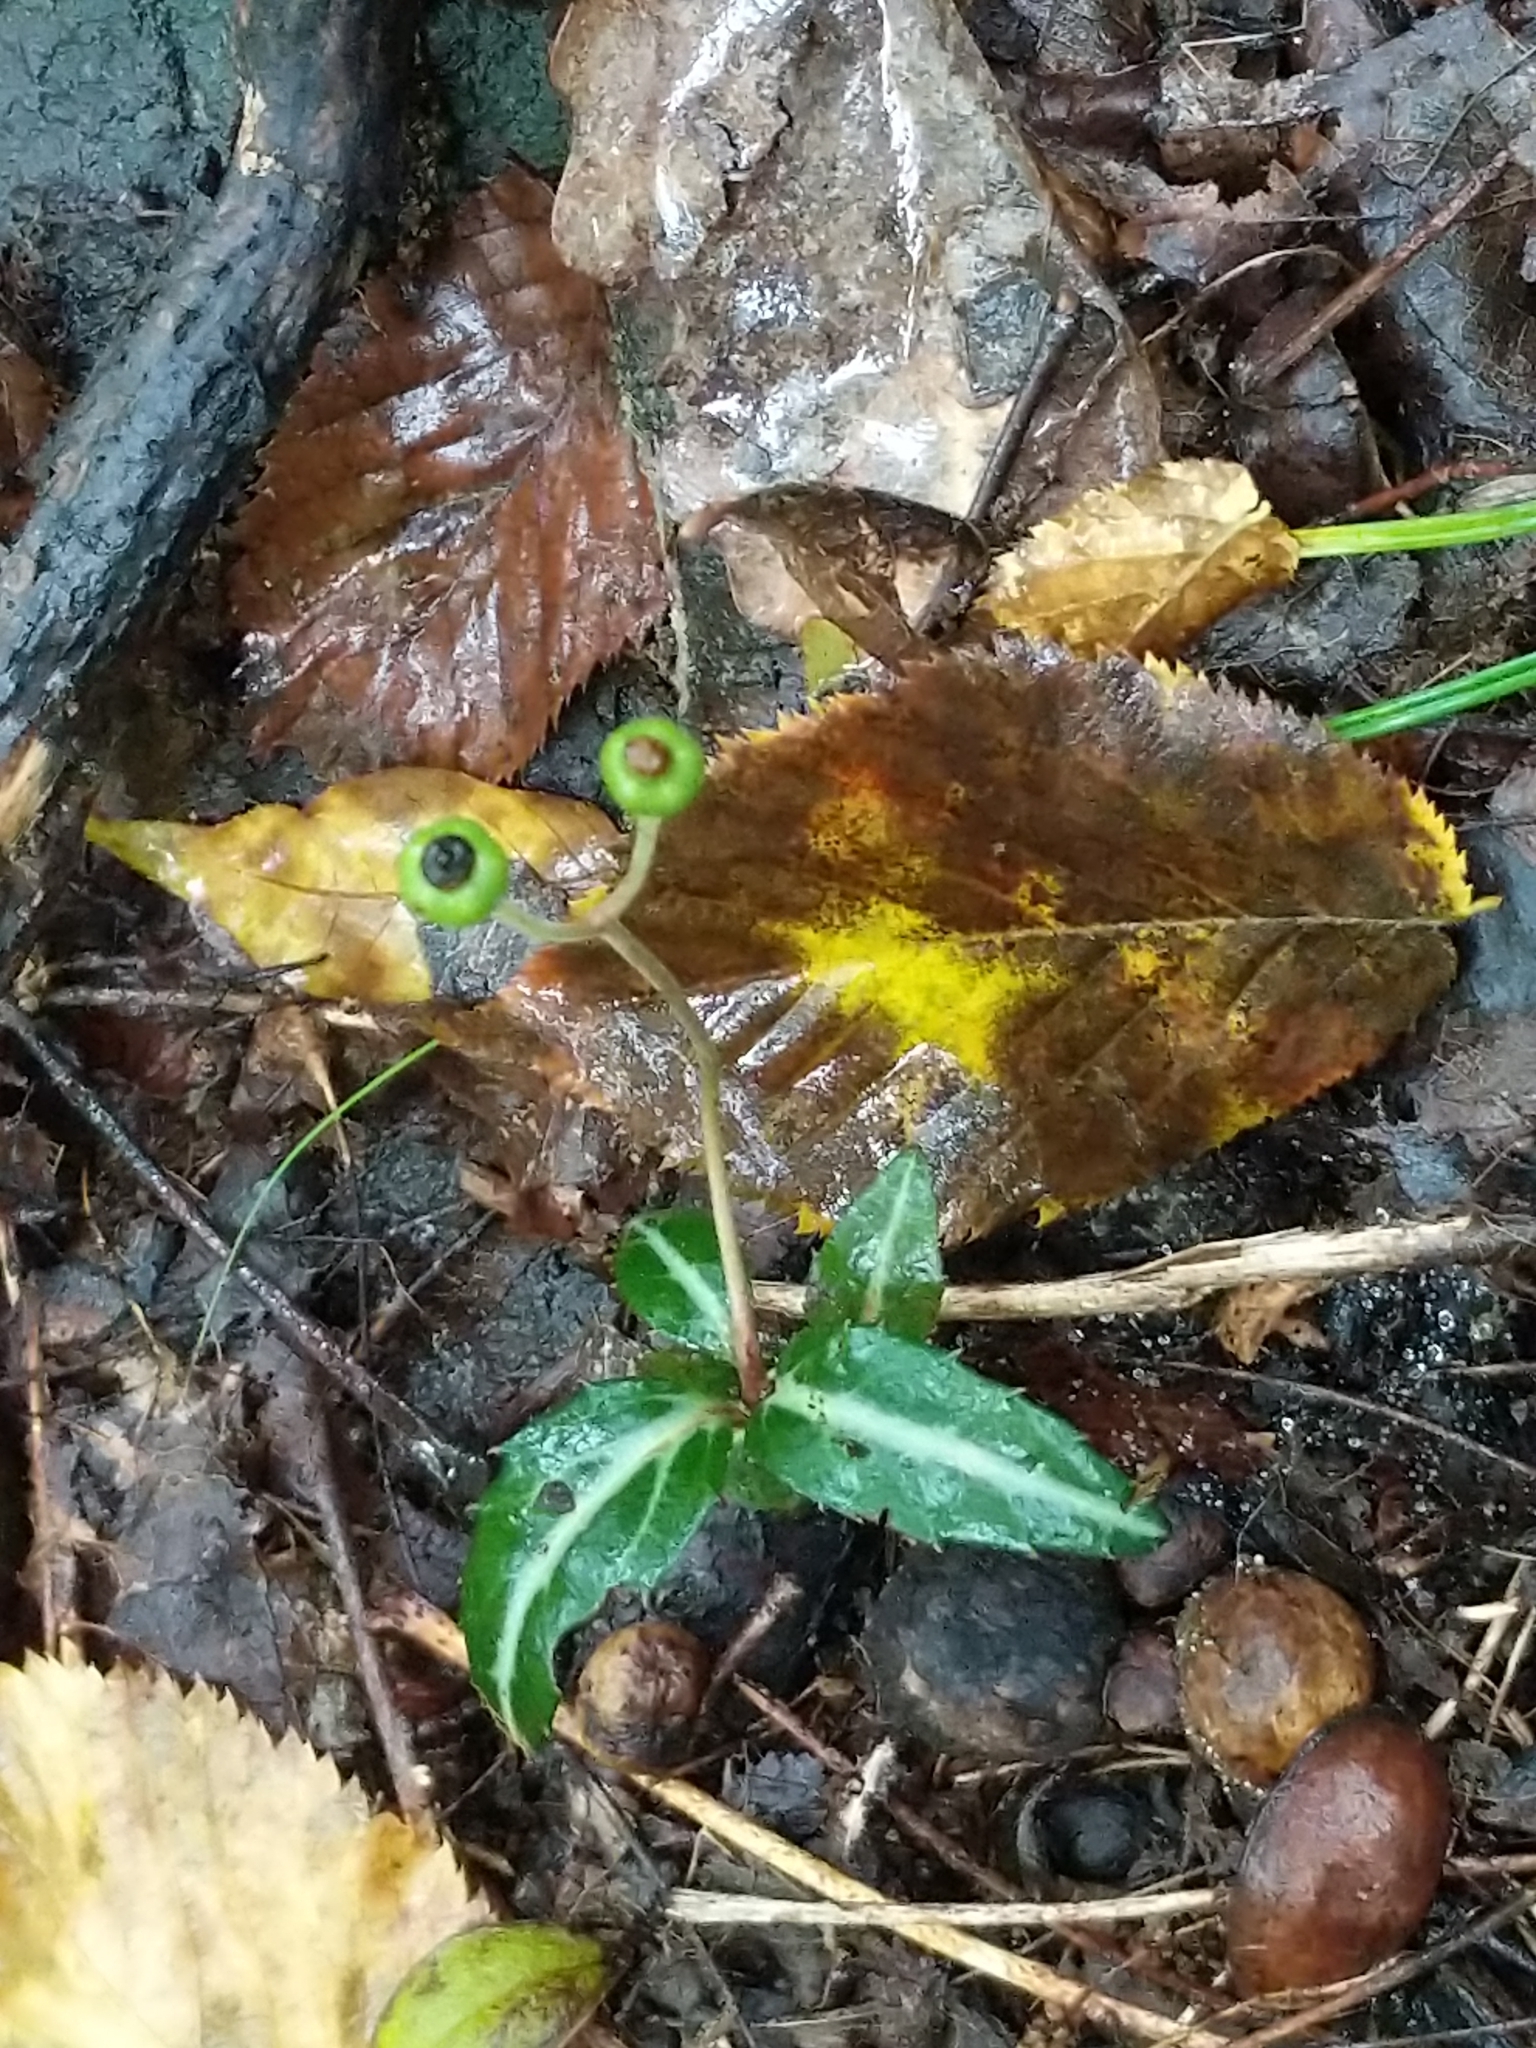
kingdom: Plantae
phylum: Tracheophyta
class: Magnoliopsida
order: Ericales
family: Ericaceae
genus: Chimaphila
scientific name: Chimaphila maculata
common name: Spotted pipsissewa
